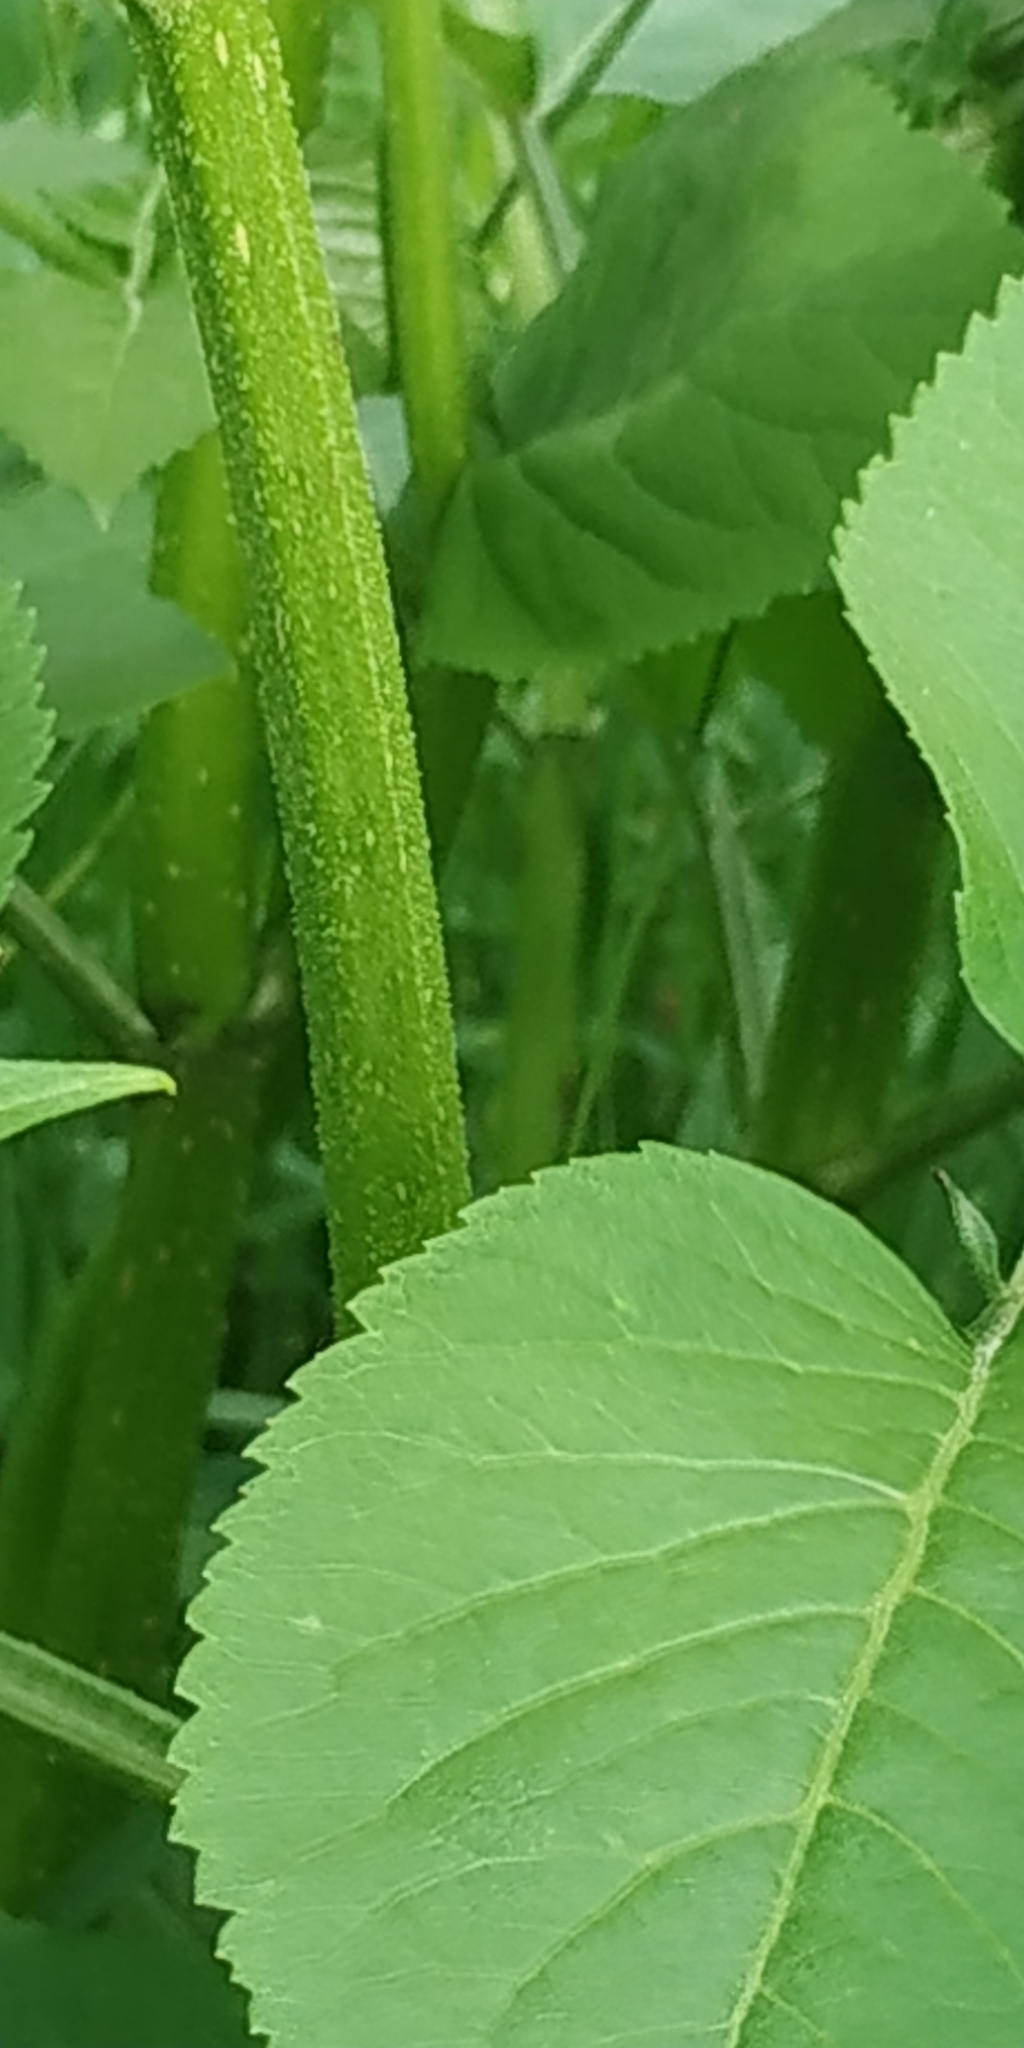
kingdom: Plantae
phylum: Tracheophyta
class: Magnoliopsida
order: Dipsacales
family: Viburnaceae
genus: Sambucus
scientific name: Sambucus ebulus
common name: Dwarf elder
